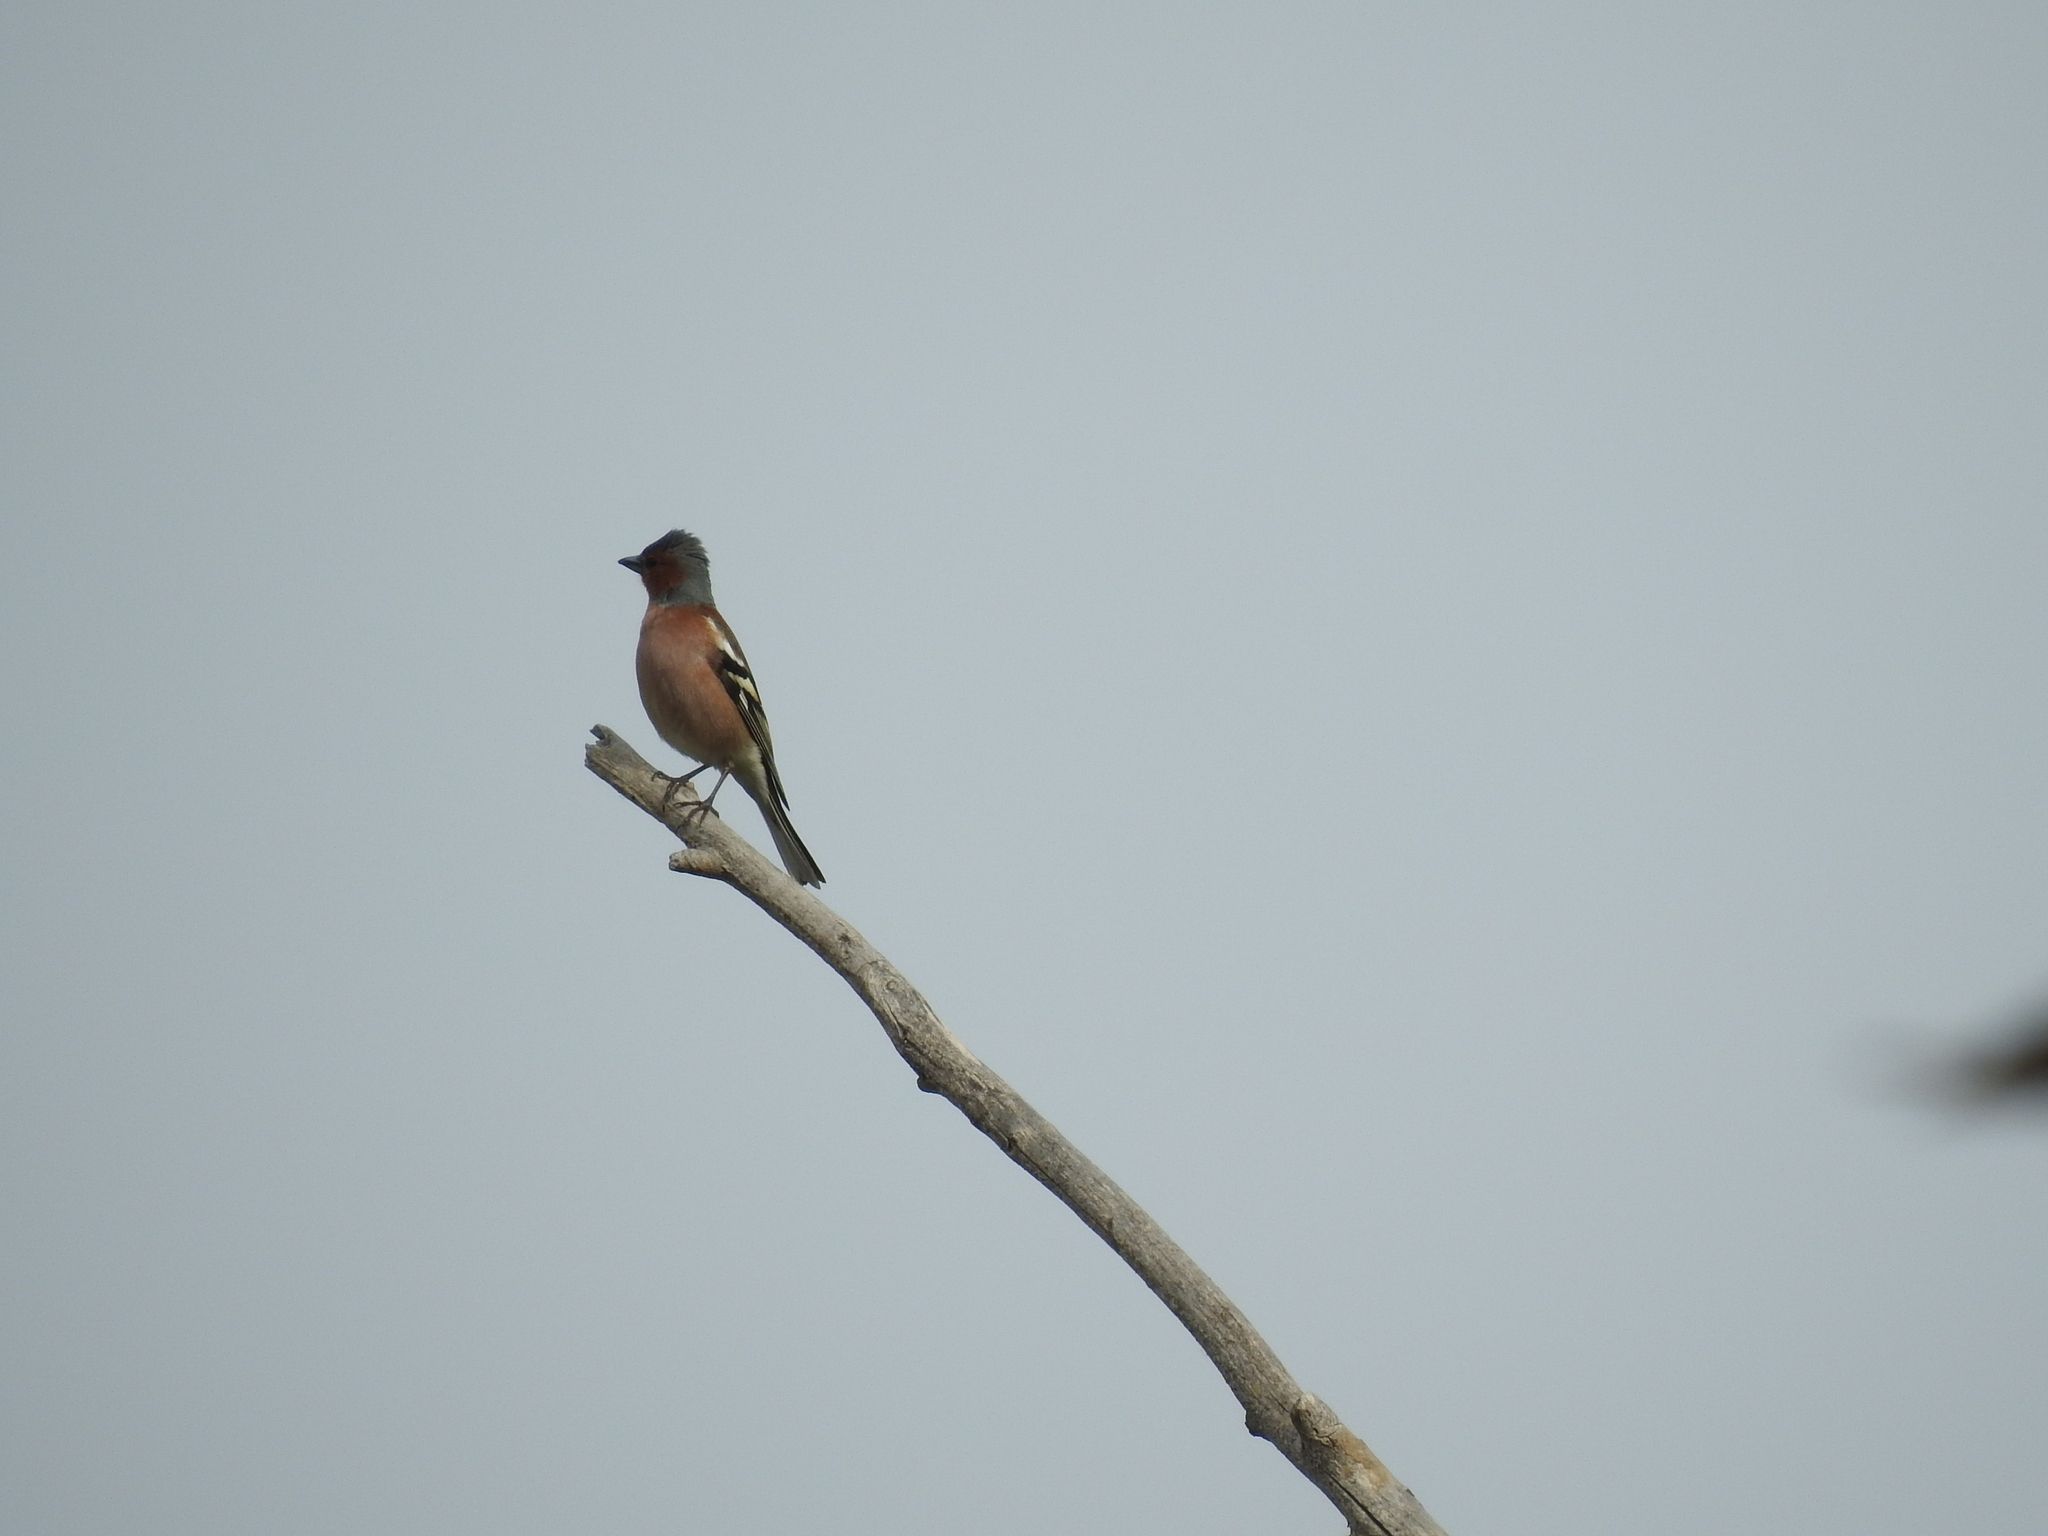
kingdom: Animalia
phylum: Chordata
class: Aves
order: Passeriformes
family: Fringillidae
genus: Fringilla
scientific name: Fringilla coelebs
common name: Common chaffinch
